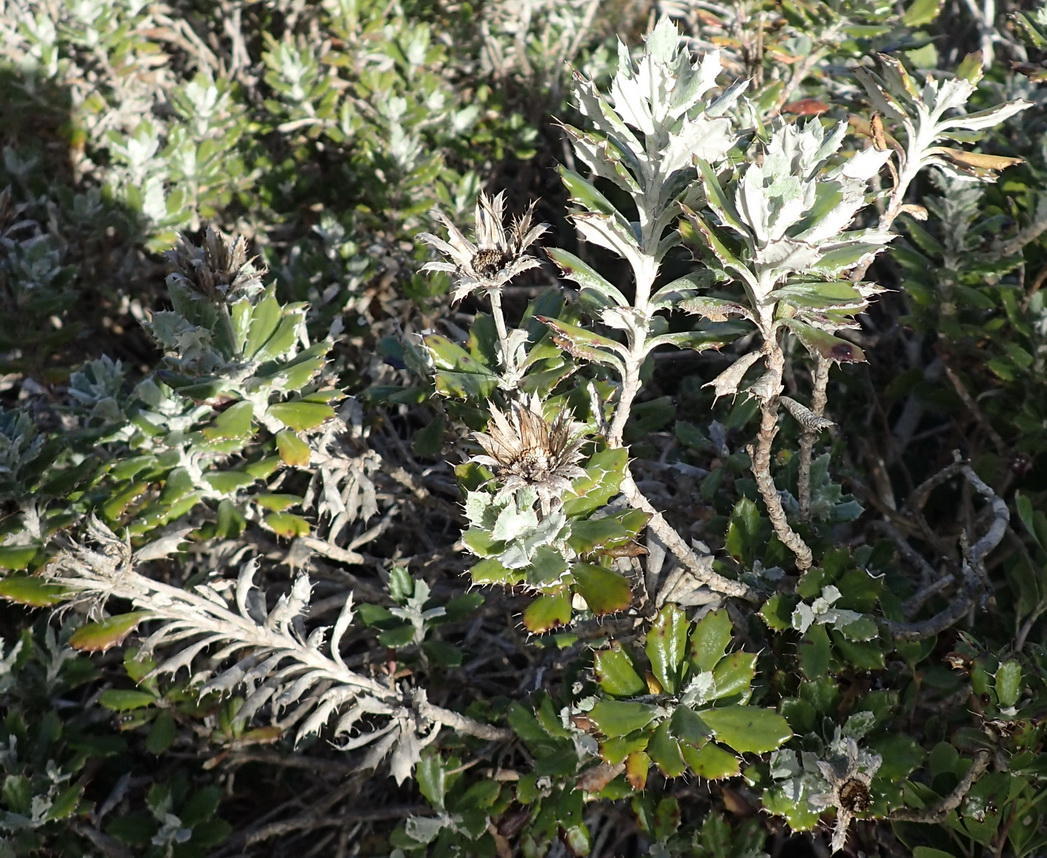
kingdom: Plantae
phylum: Tracheophyta
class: Magnoliopsida
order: Asterales
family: Asteraceae
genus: Berkheya
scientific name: Berkheya coriacea
